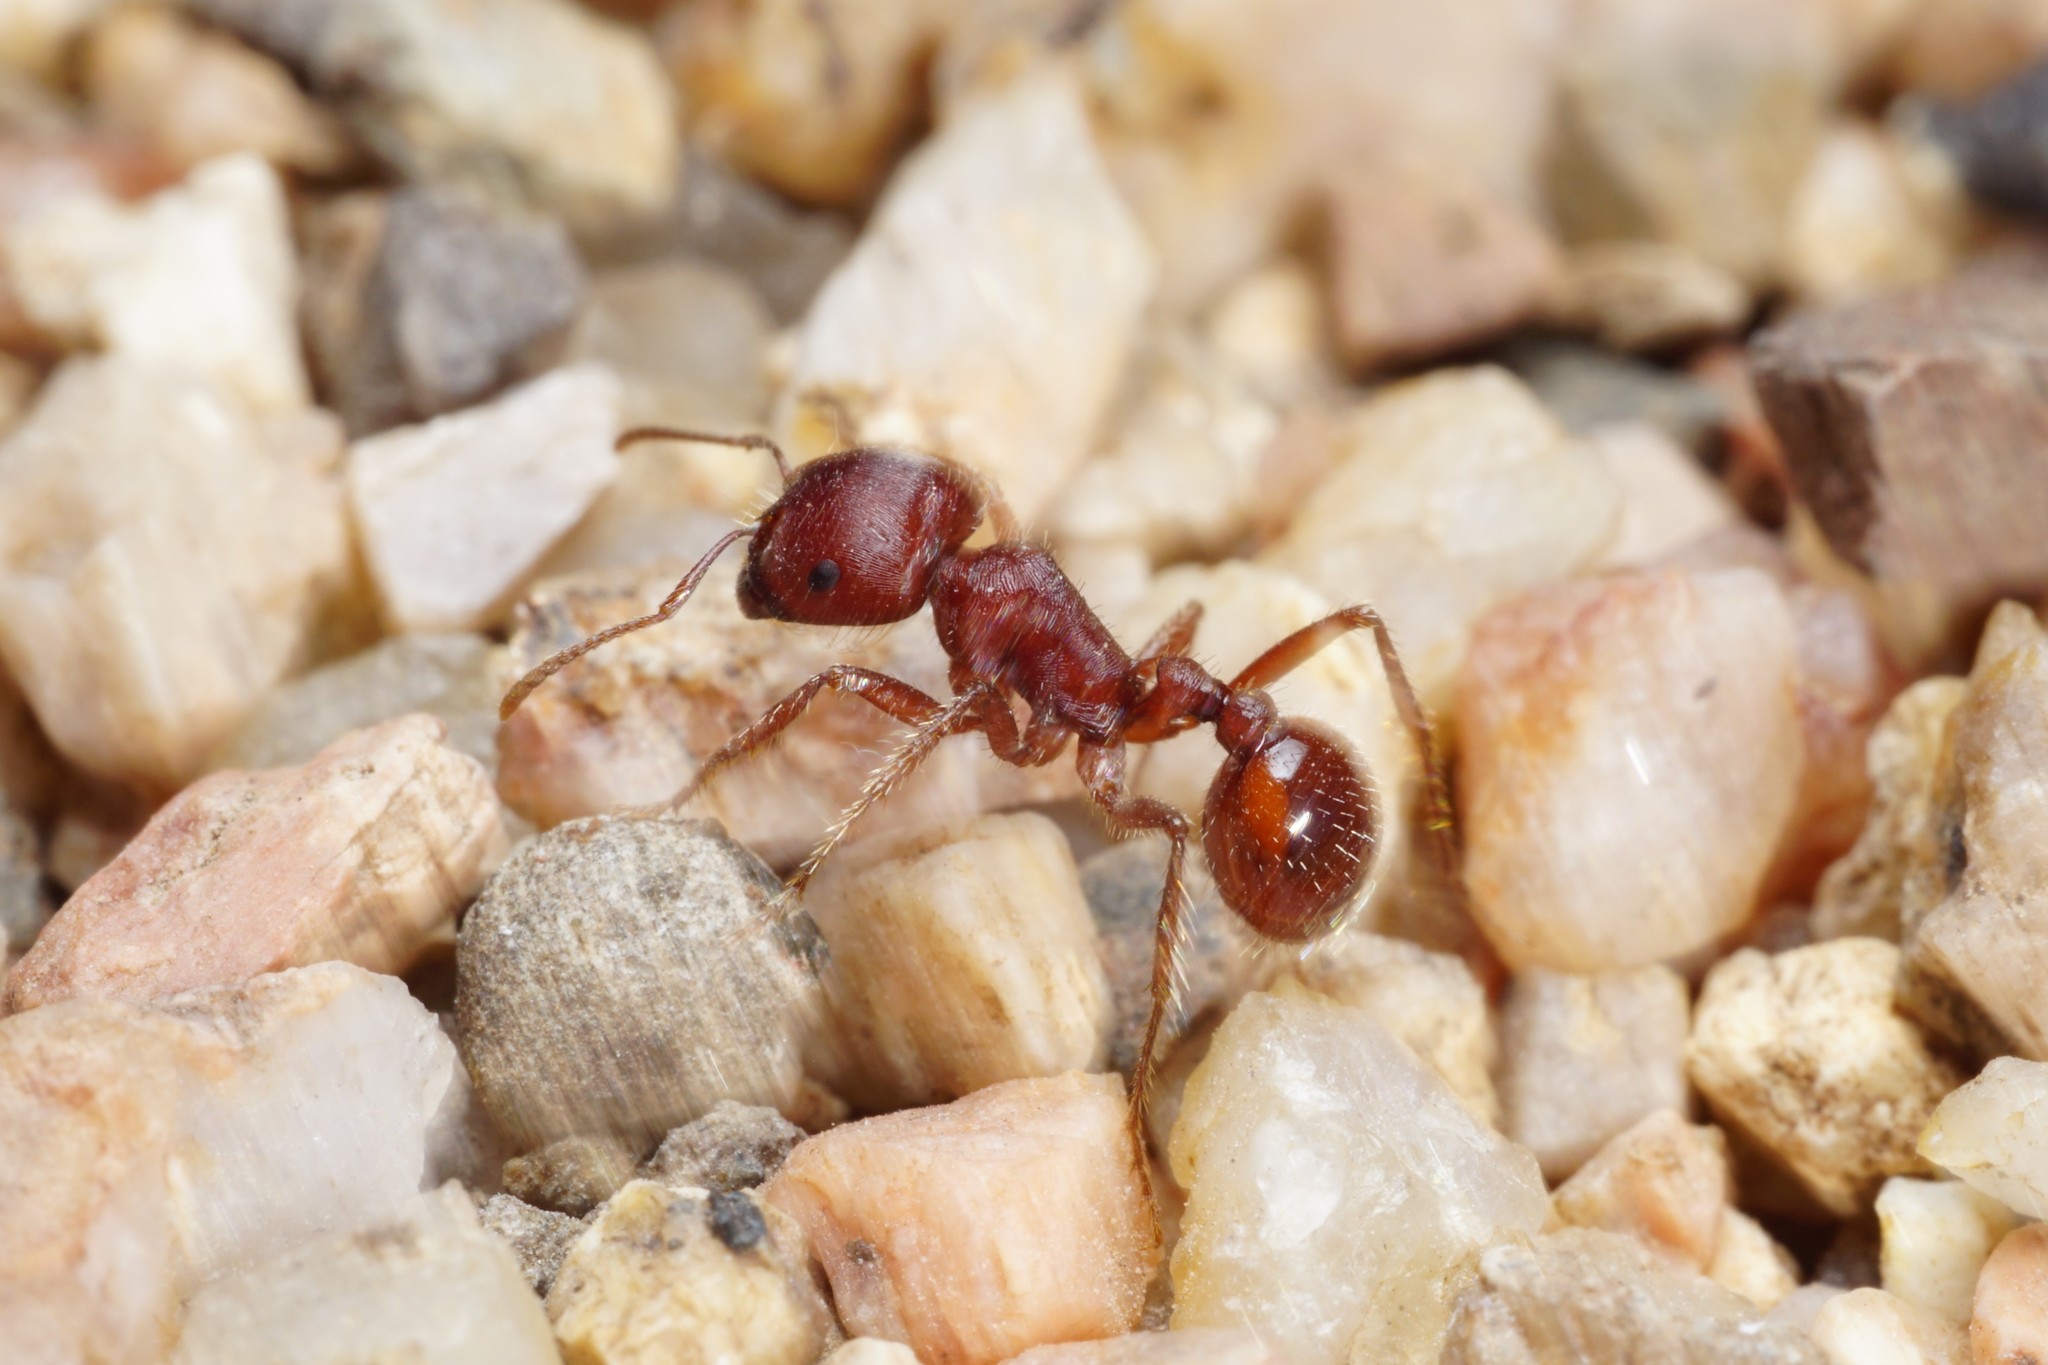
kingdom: Animalia
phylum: Arthropoda
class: Insecta
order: Hymenoptera
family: Formicidae
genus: Pogonomyrmex
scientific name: Pogonomyrmex barbatus
